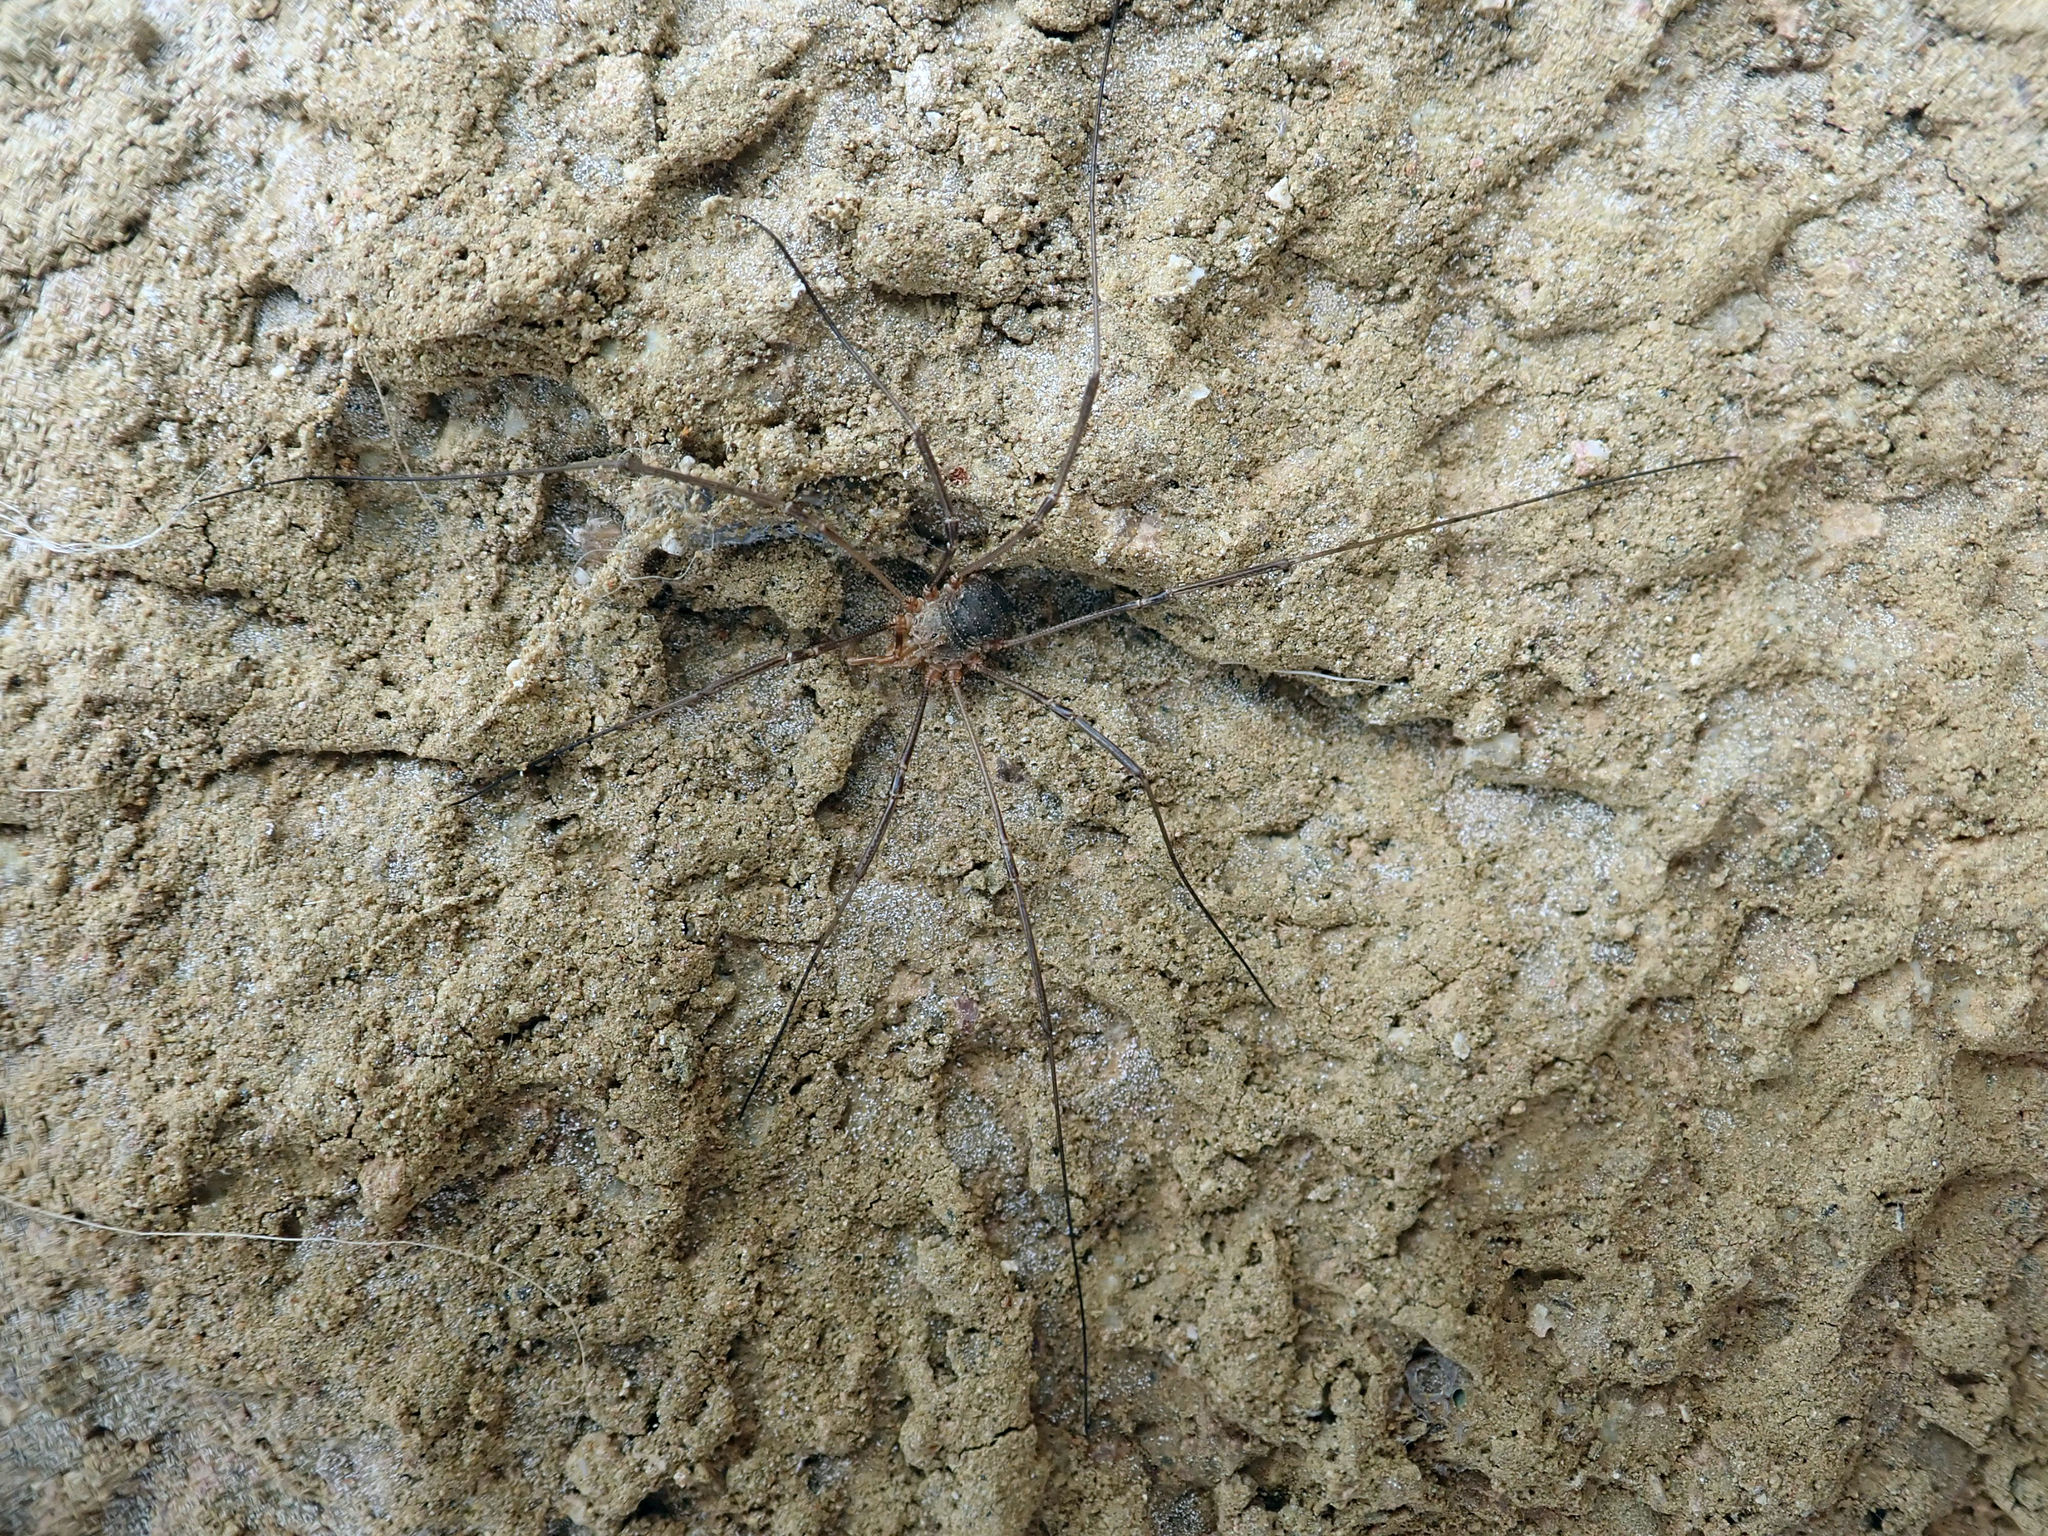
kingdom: Animalia
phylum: Arthropoda
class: Arachnida
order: Opiliones
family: Phalangiidae
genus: Phalangium
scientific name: Phalangium opilio
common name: Daddy longleg
